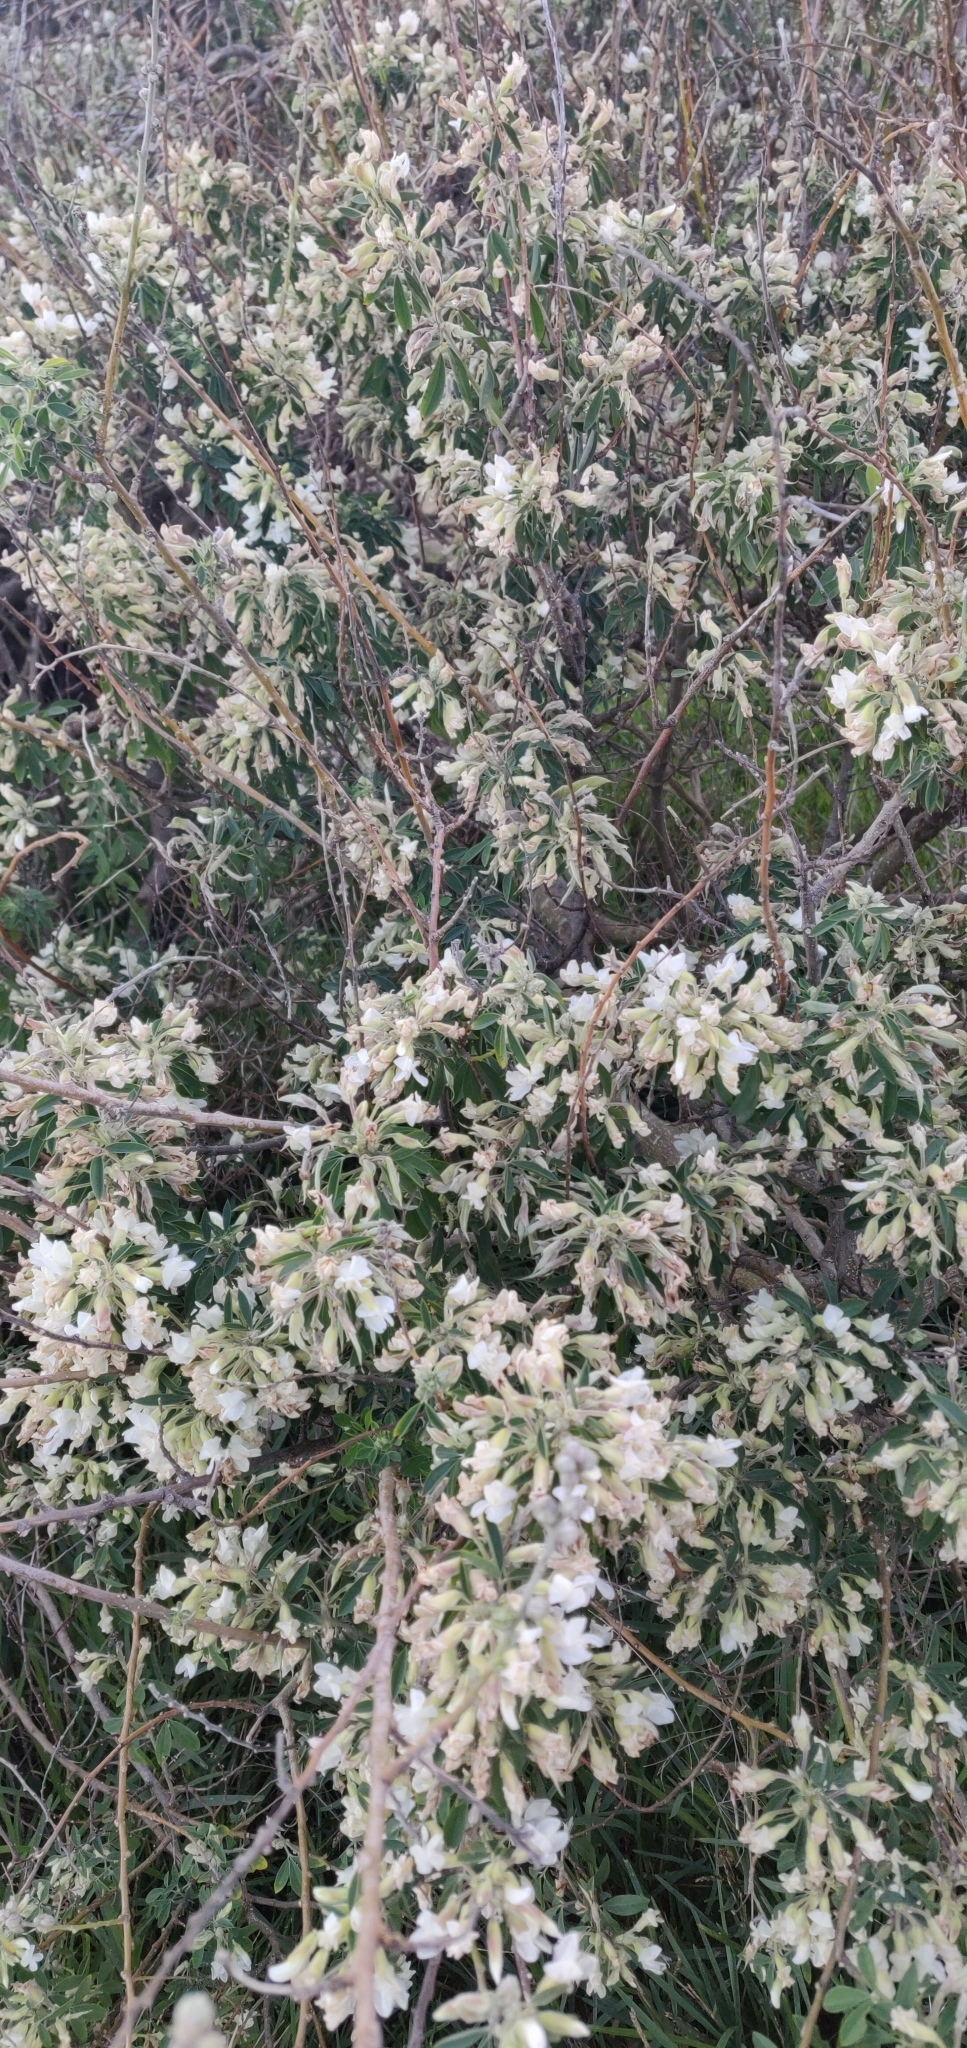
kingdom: Plantae
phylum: Tracheophyta
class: Magnoliopsida
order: Fabales
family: Fabaceae
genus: Chamaecytisus
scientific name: Chamaecytisus prolifer
